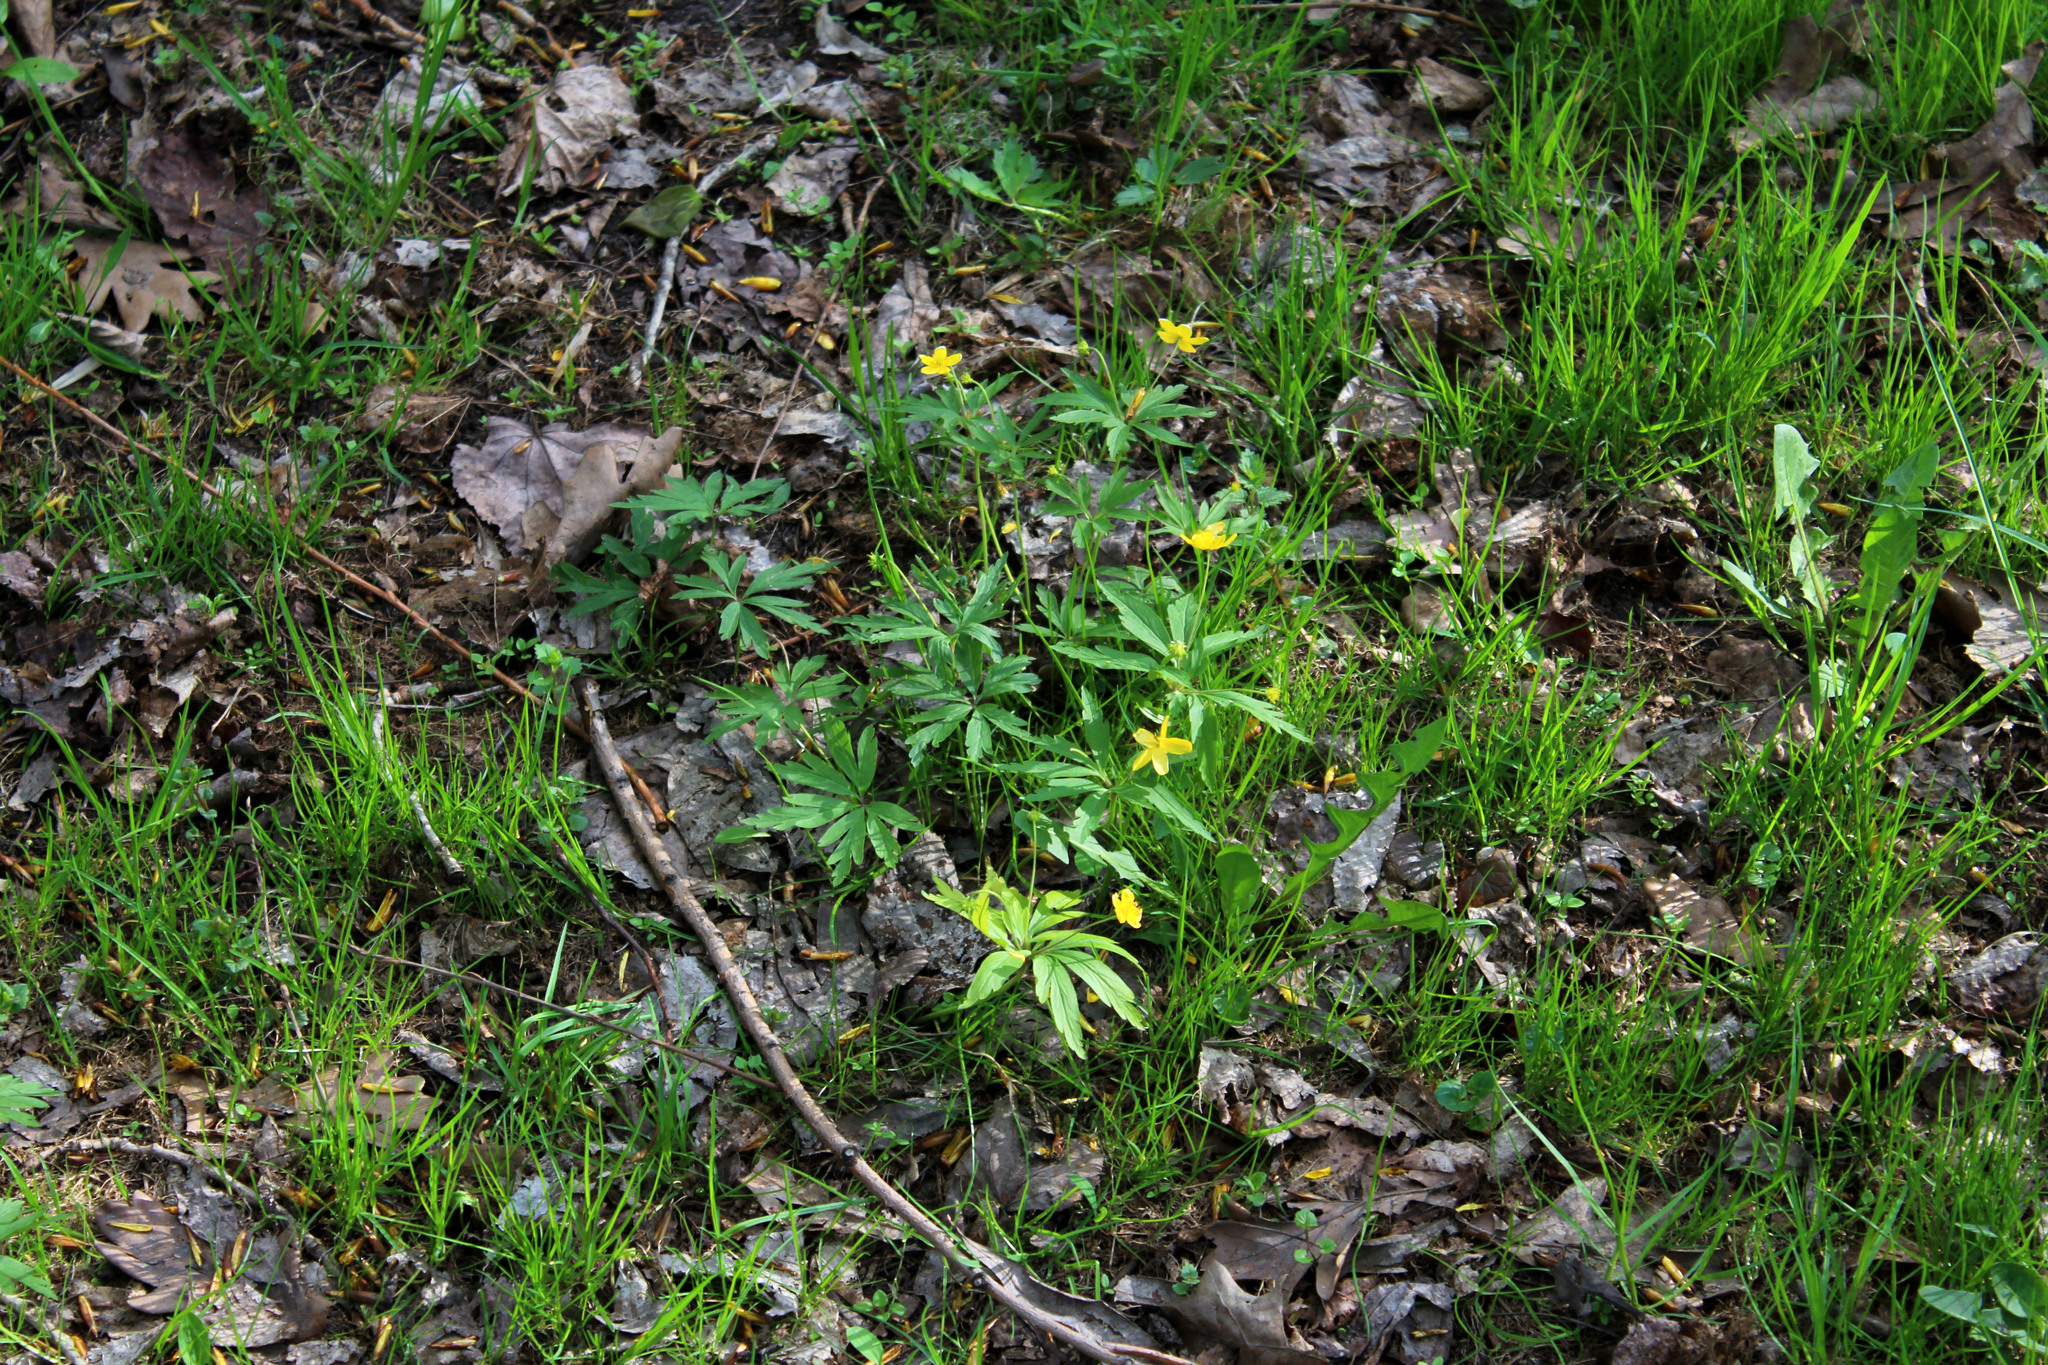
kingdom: Plantae
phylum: Tracheophyta
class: Magnoliopsida
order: Ranunculales
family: Ranunculaceae
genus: Anemone
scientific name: Anemone ranunculoides
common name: Yellow anemone
